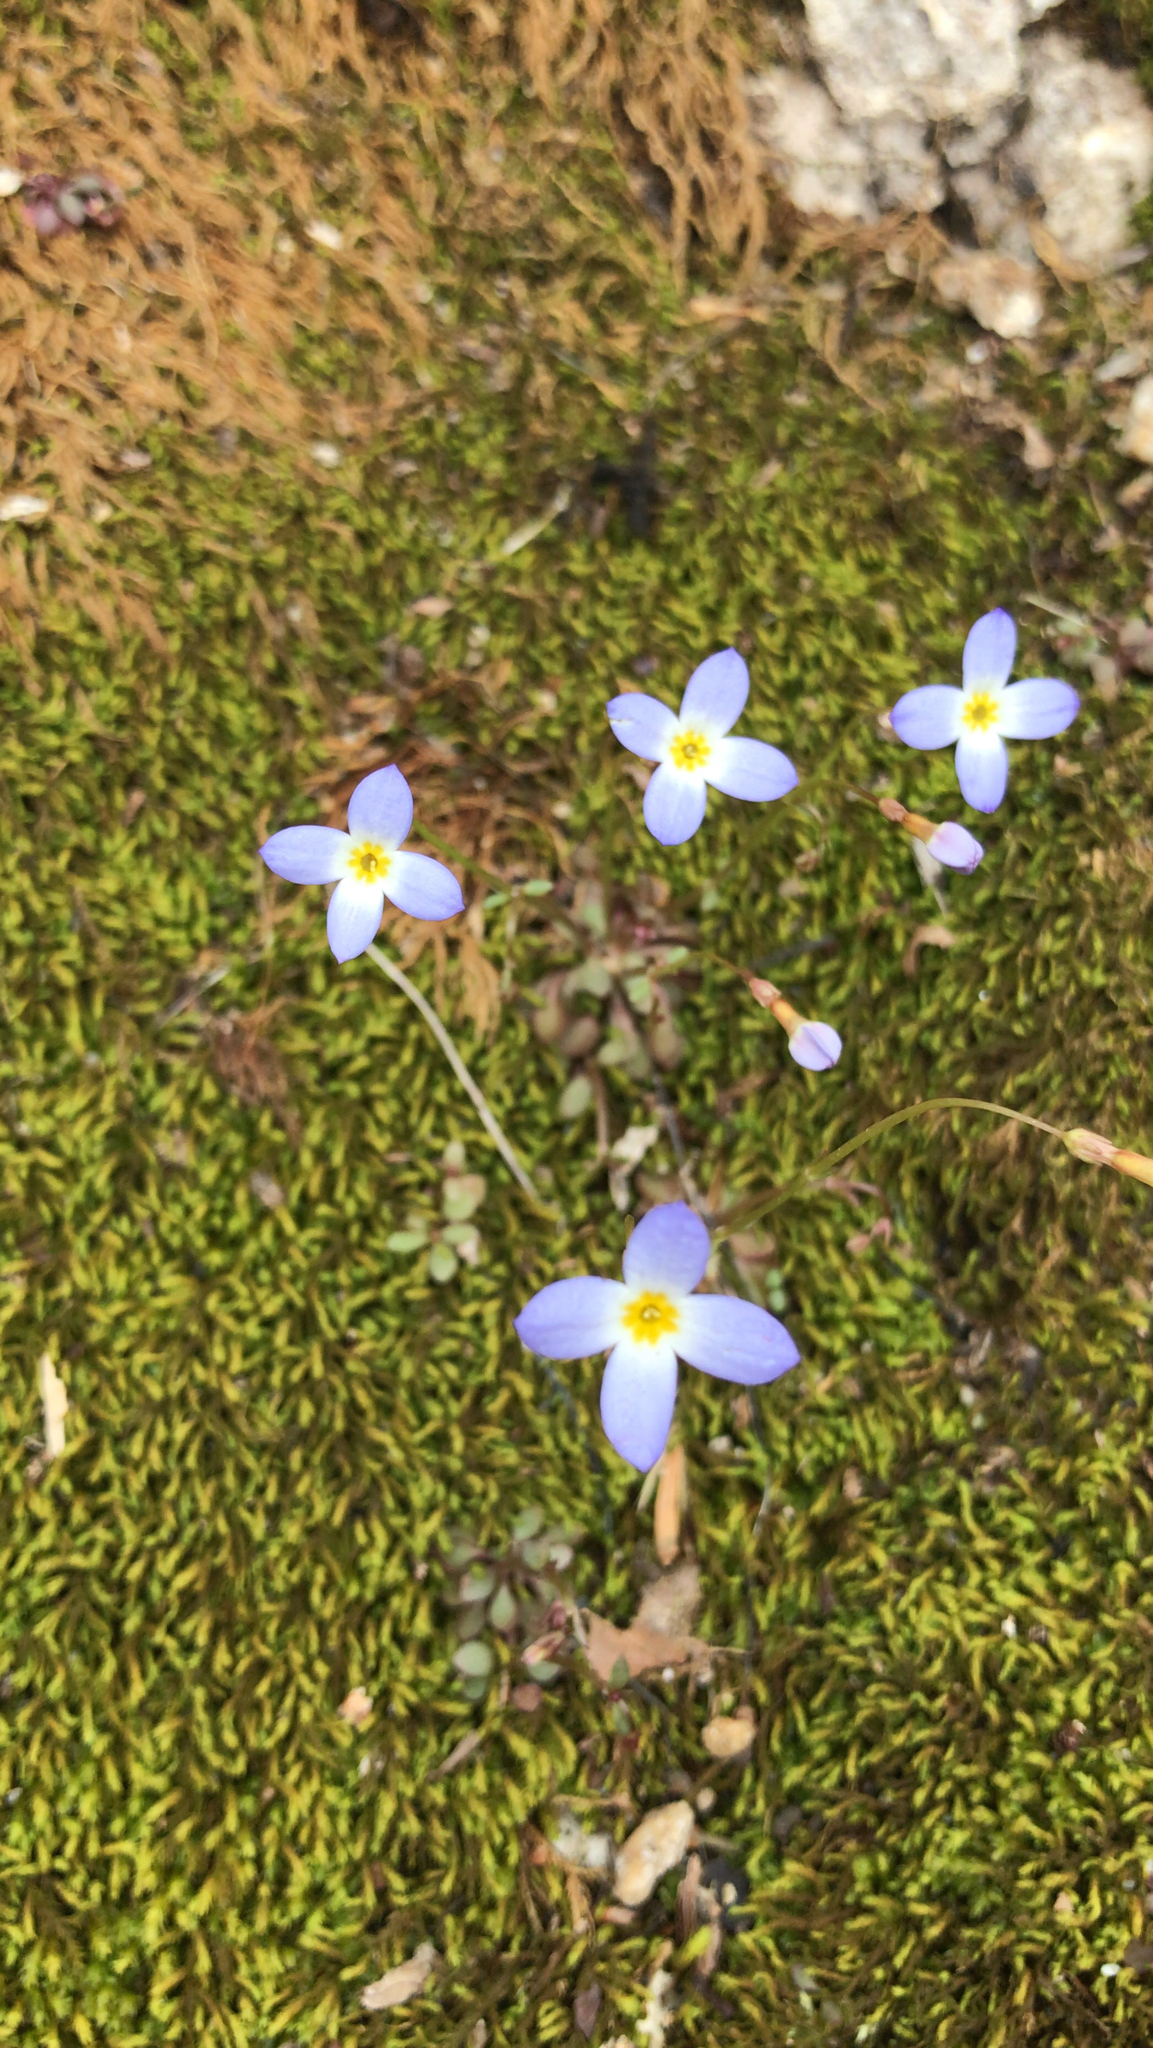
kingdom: Plantae
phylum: Tracheophyta
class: Magnoliopsida
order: Gentianales
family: Rubiaceae
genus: Houstonia
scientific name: Houstonia caerulea
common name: Bluets
